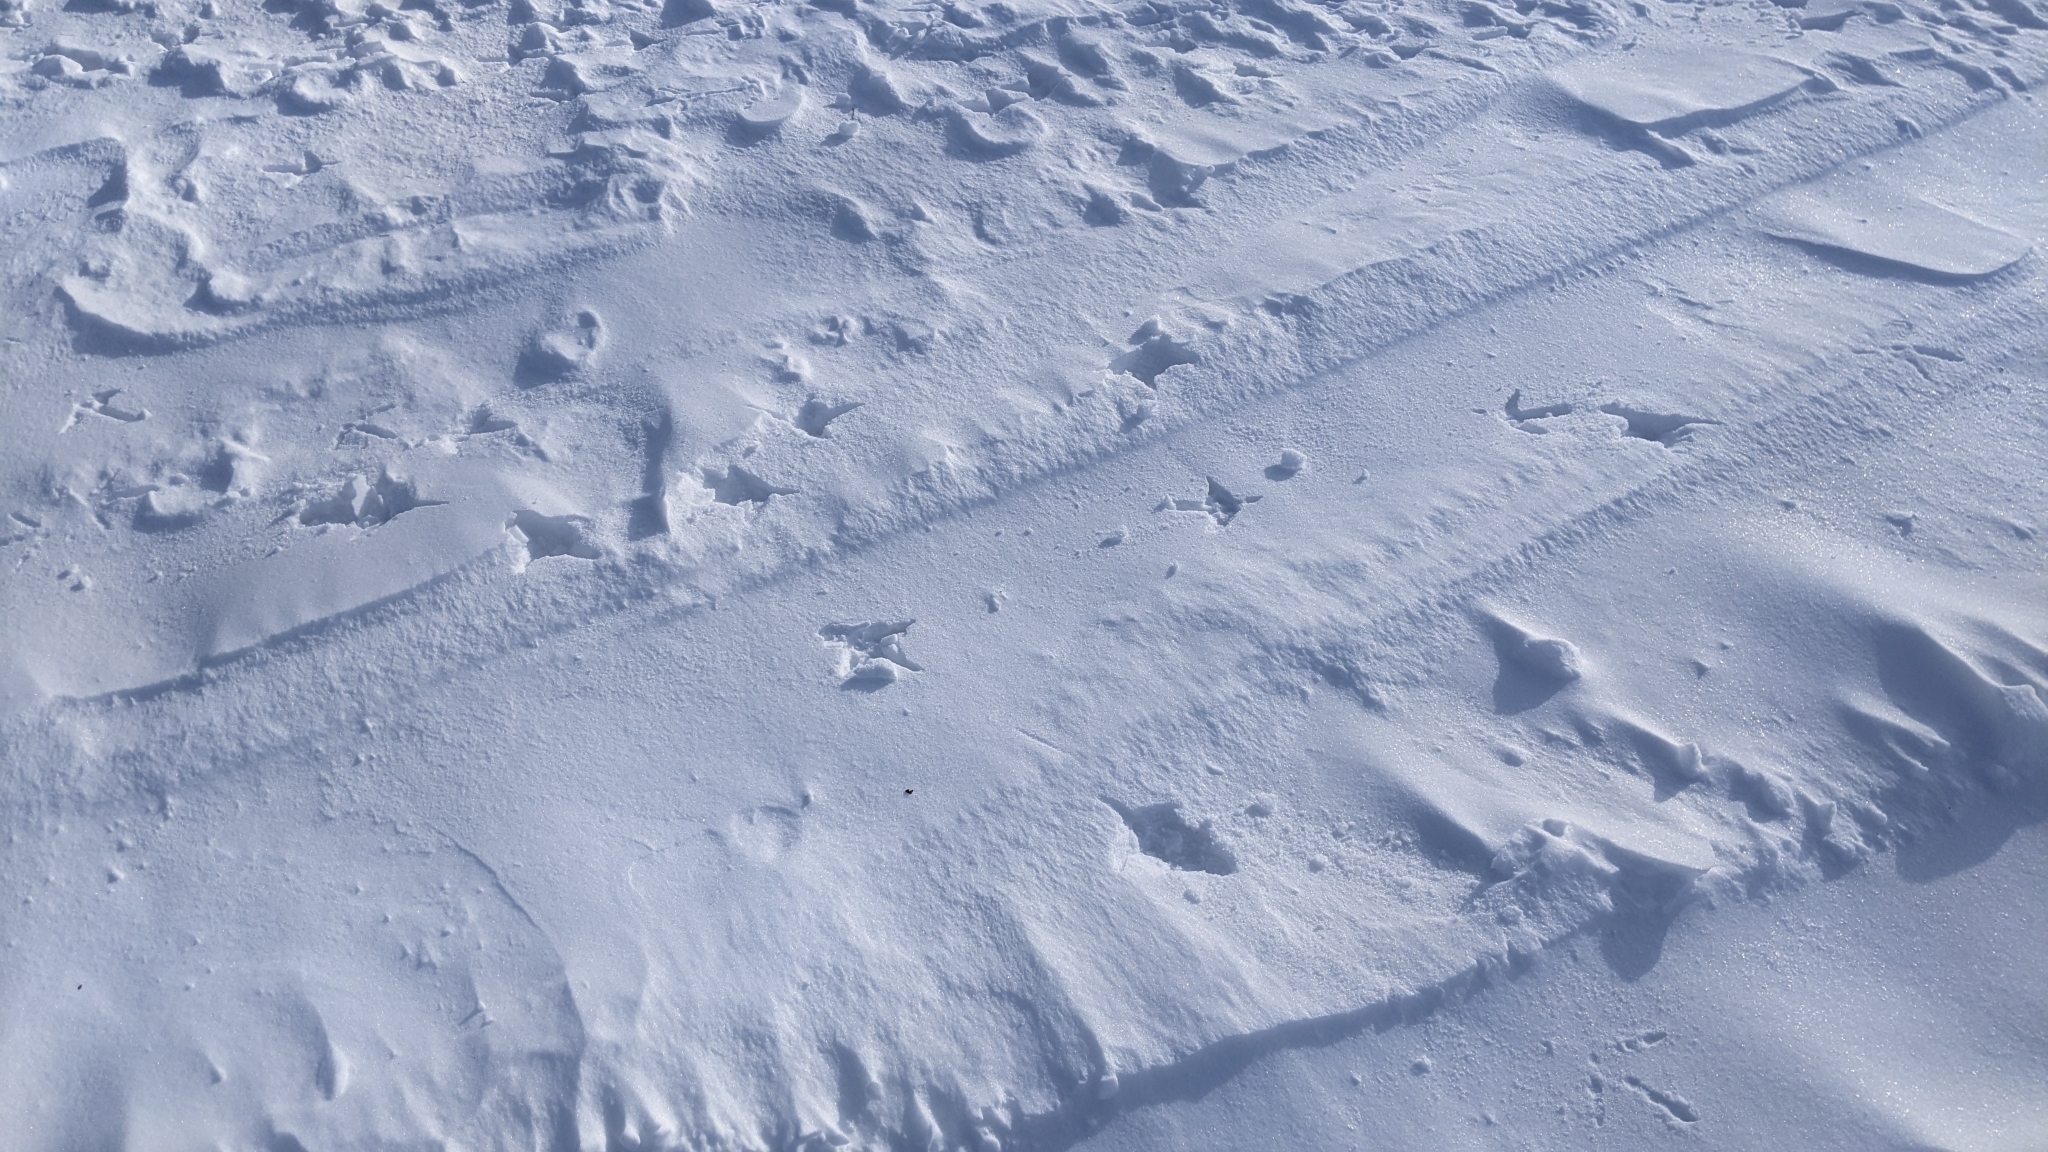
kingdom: Animalia
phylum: Chordata
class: Aves
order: Galliformes
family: Phasianidae
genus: Meleagris
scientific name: Meleagris gallopavo
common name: Wild turkey
